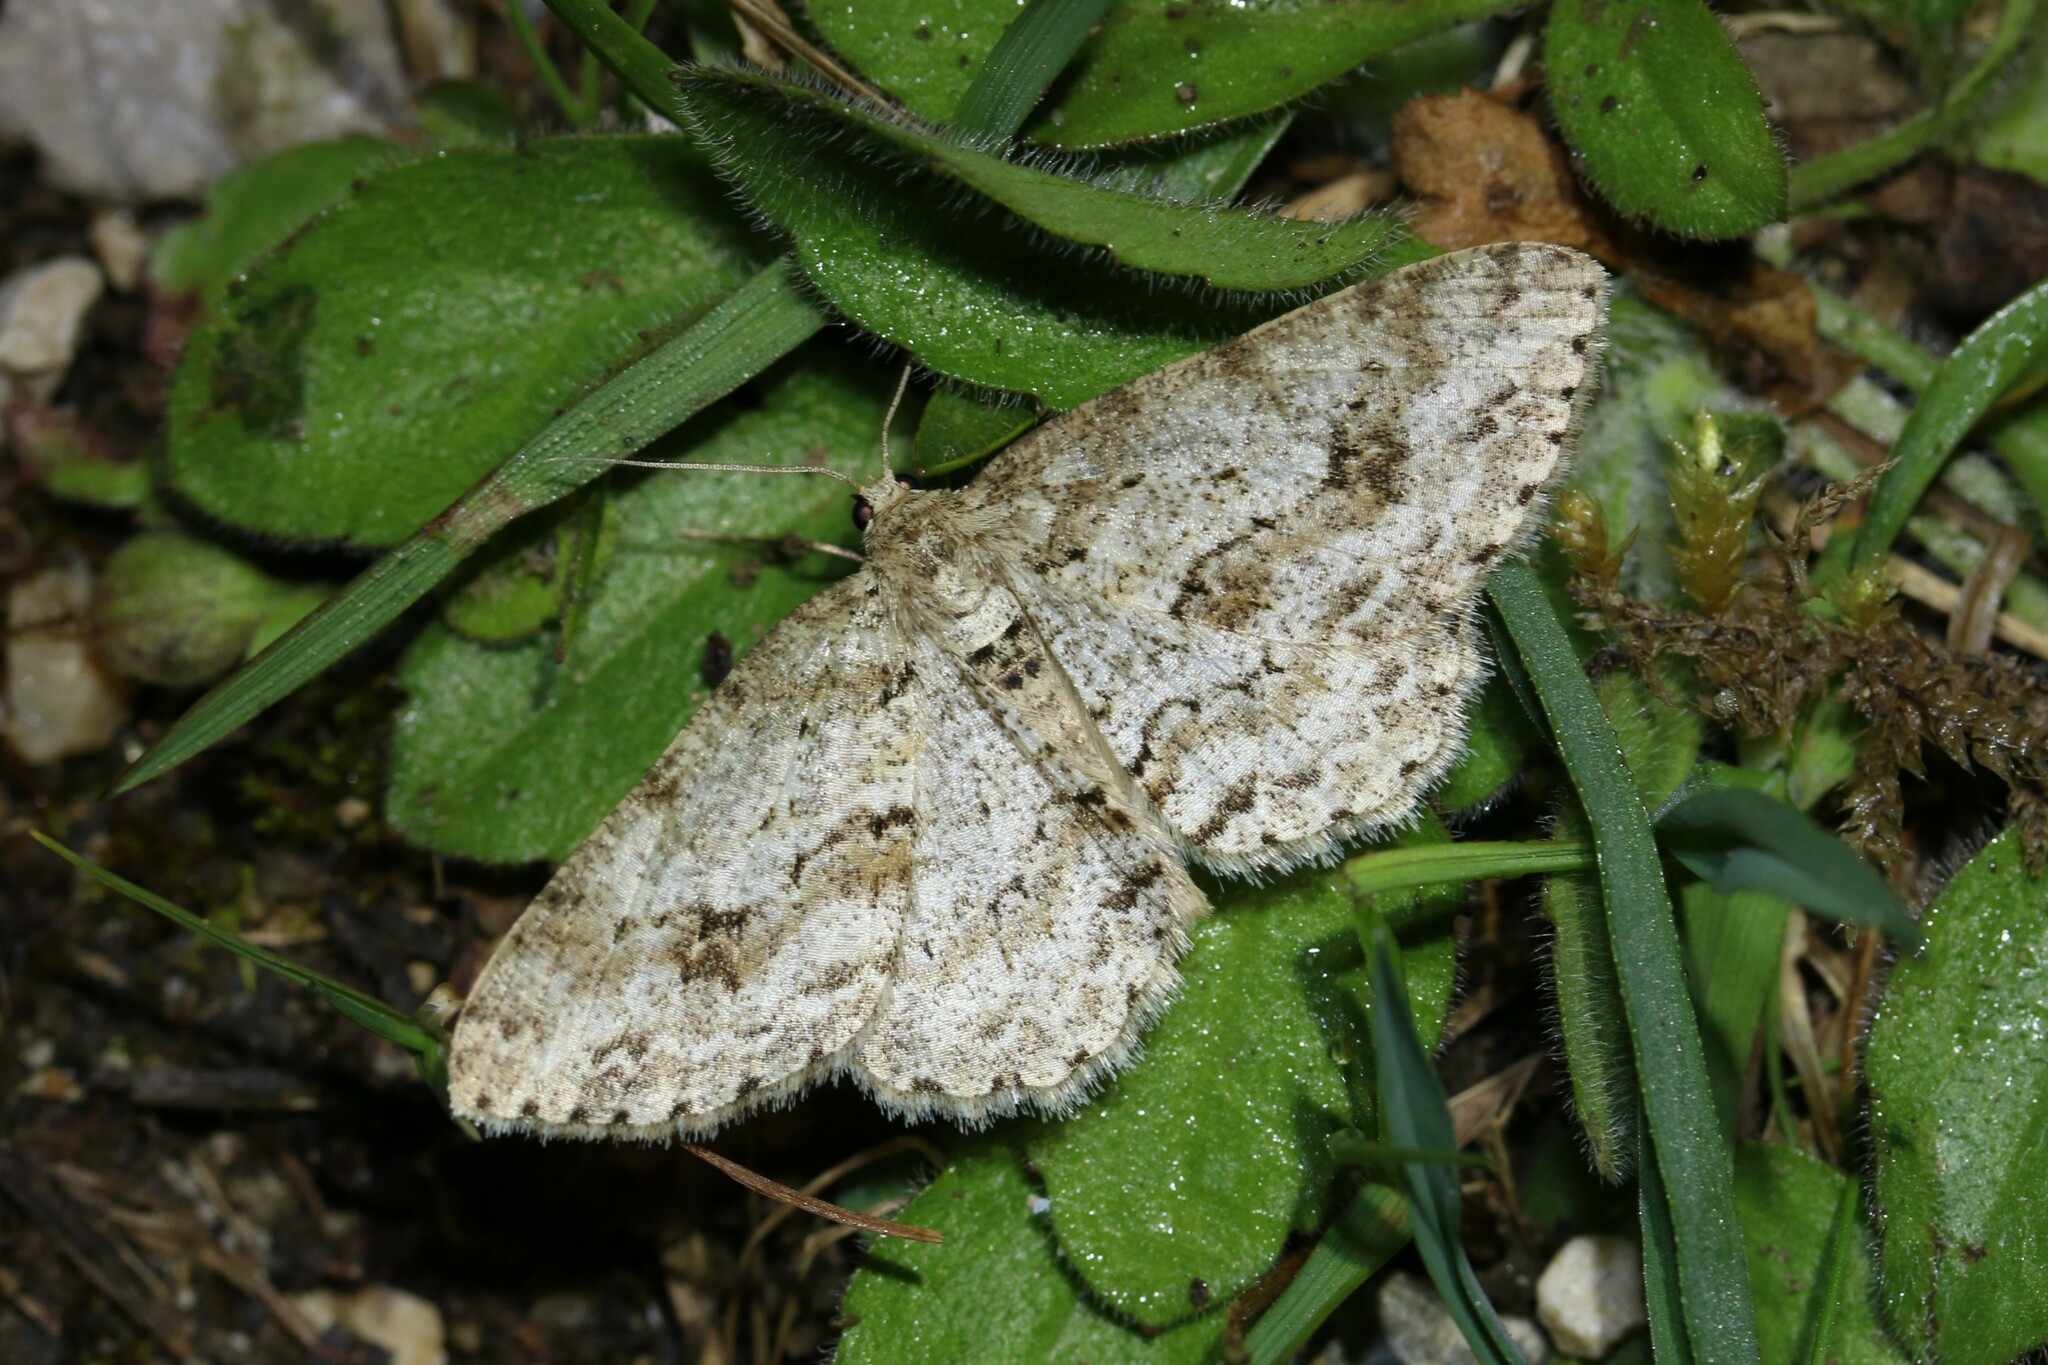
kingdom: Animalia
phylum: Arthropoda
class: Insecta
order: Lepidoptera
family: Geometridae
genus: Ectropis
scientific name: Ectropis crepuscularia
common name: Engrailed
